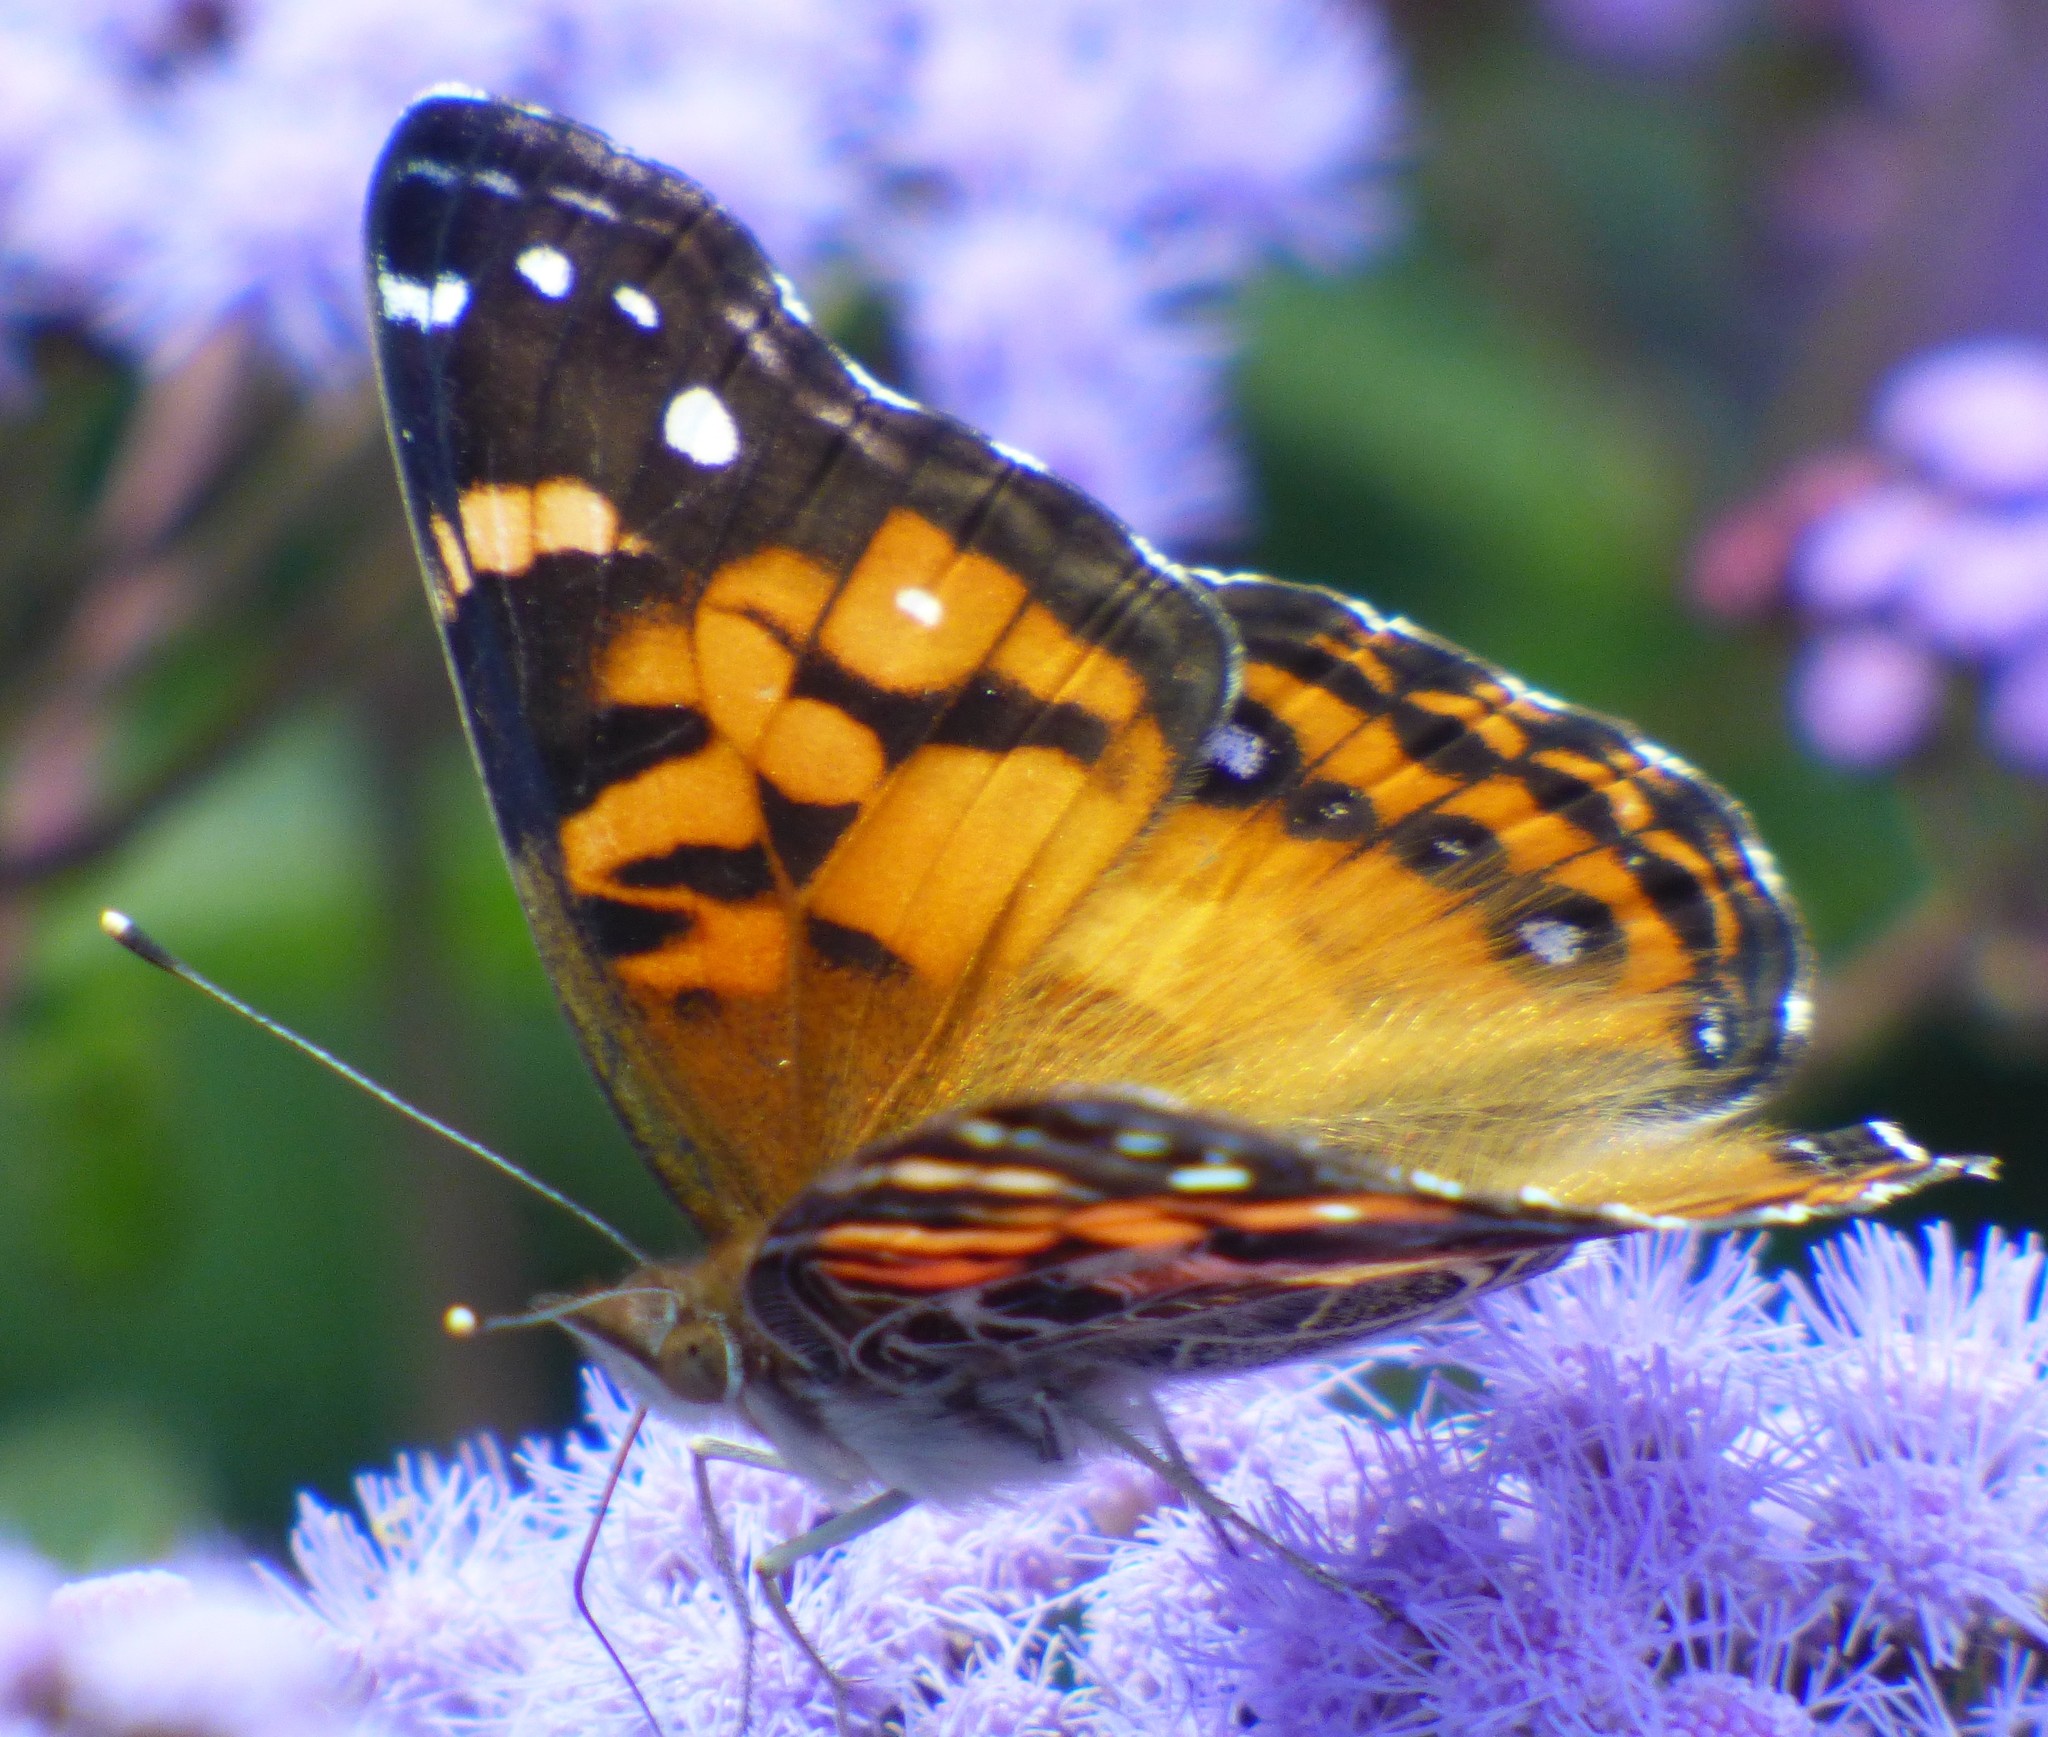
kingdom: Animalia
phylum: Arthropoda
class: Insecta
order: Lepidoptera
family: Nymphalidae
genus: Vanessa
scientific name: Vanessa virginiensis
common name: American lady
